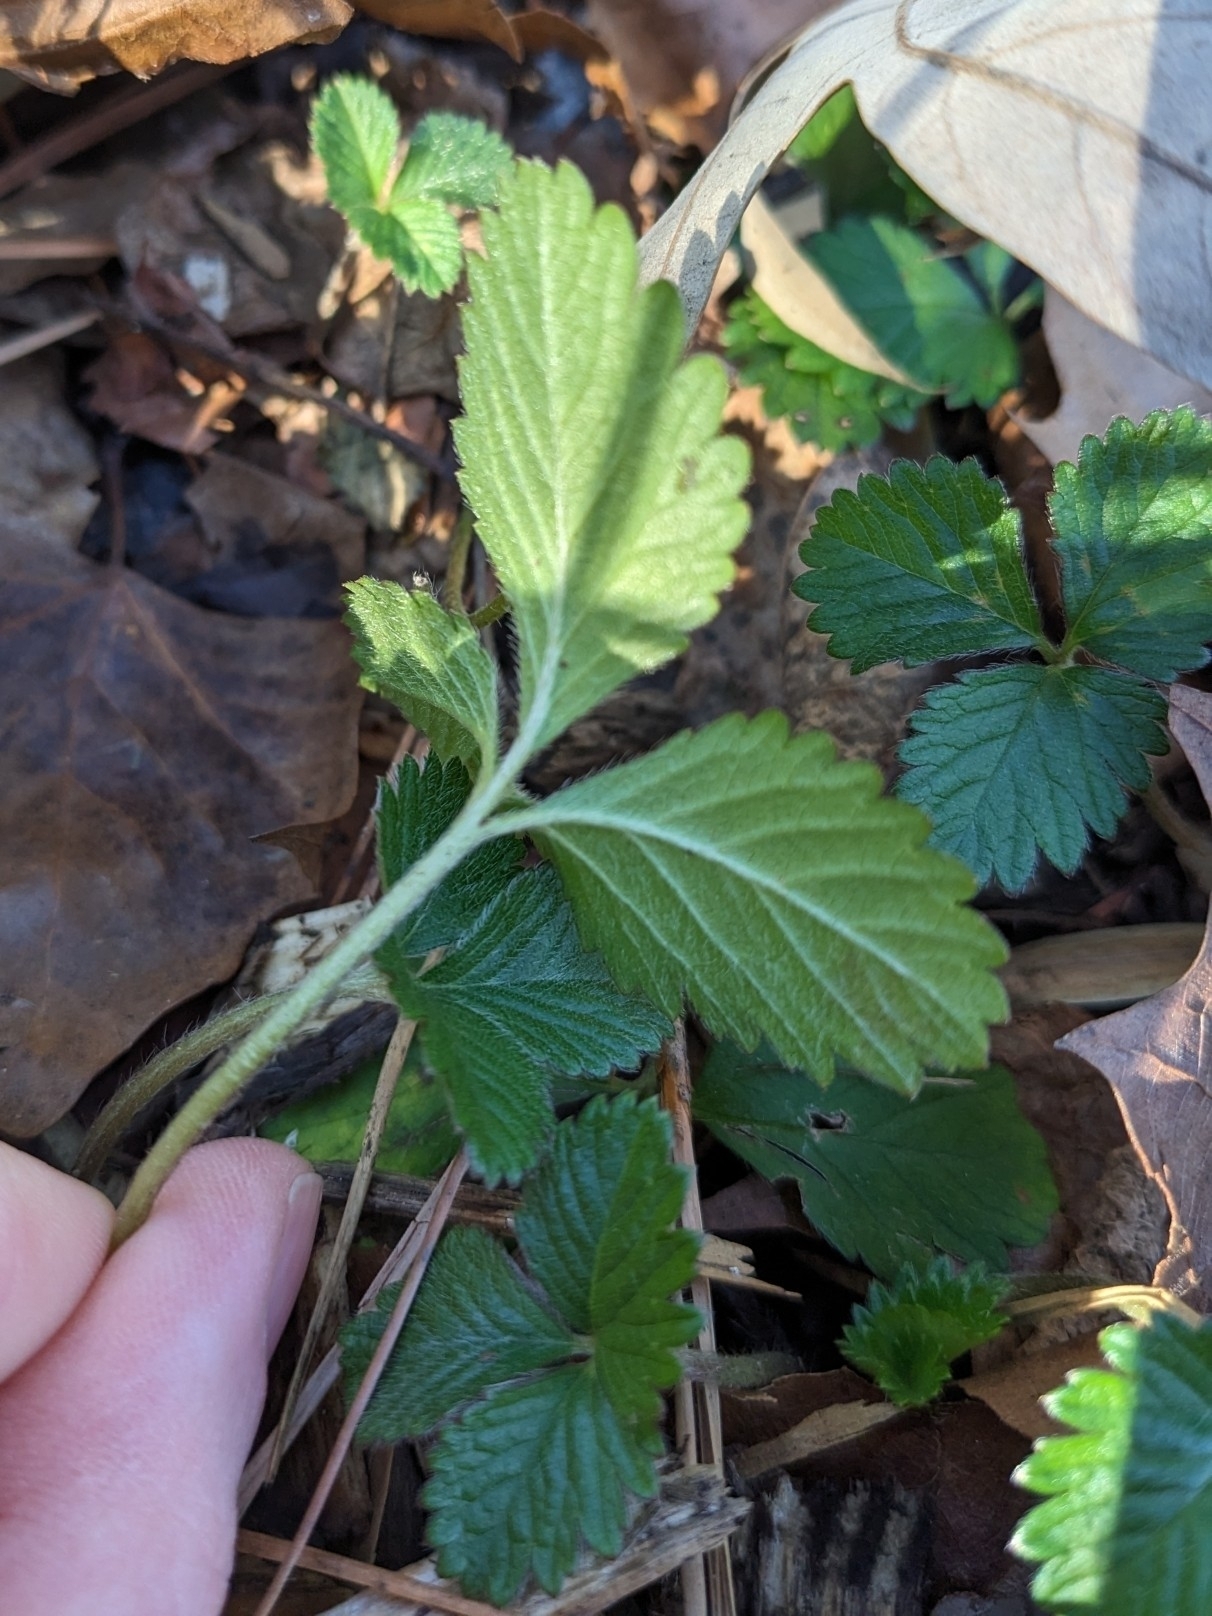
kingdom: Plantae
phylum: Tracheophyta
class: Magnoliopsida
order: Rosales
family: Rosaceae
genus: Potentilla
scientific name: Potentilla indica
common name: Yellow-flowered strawberry
